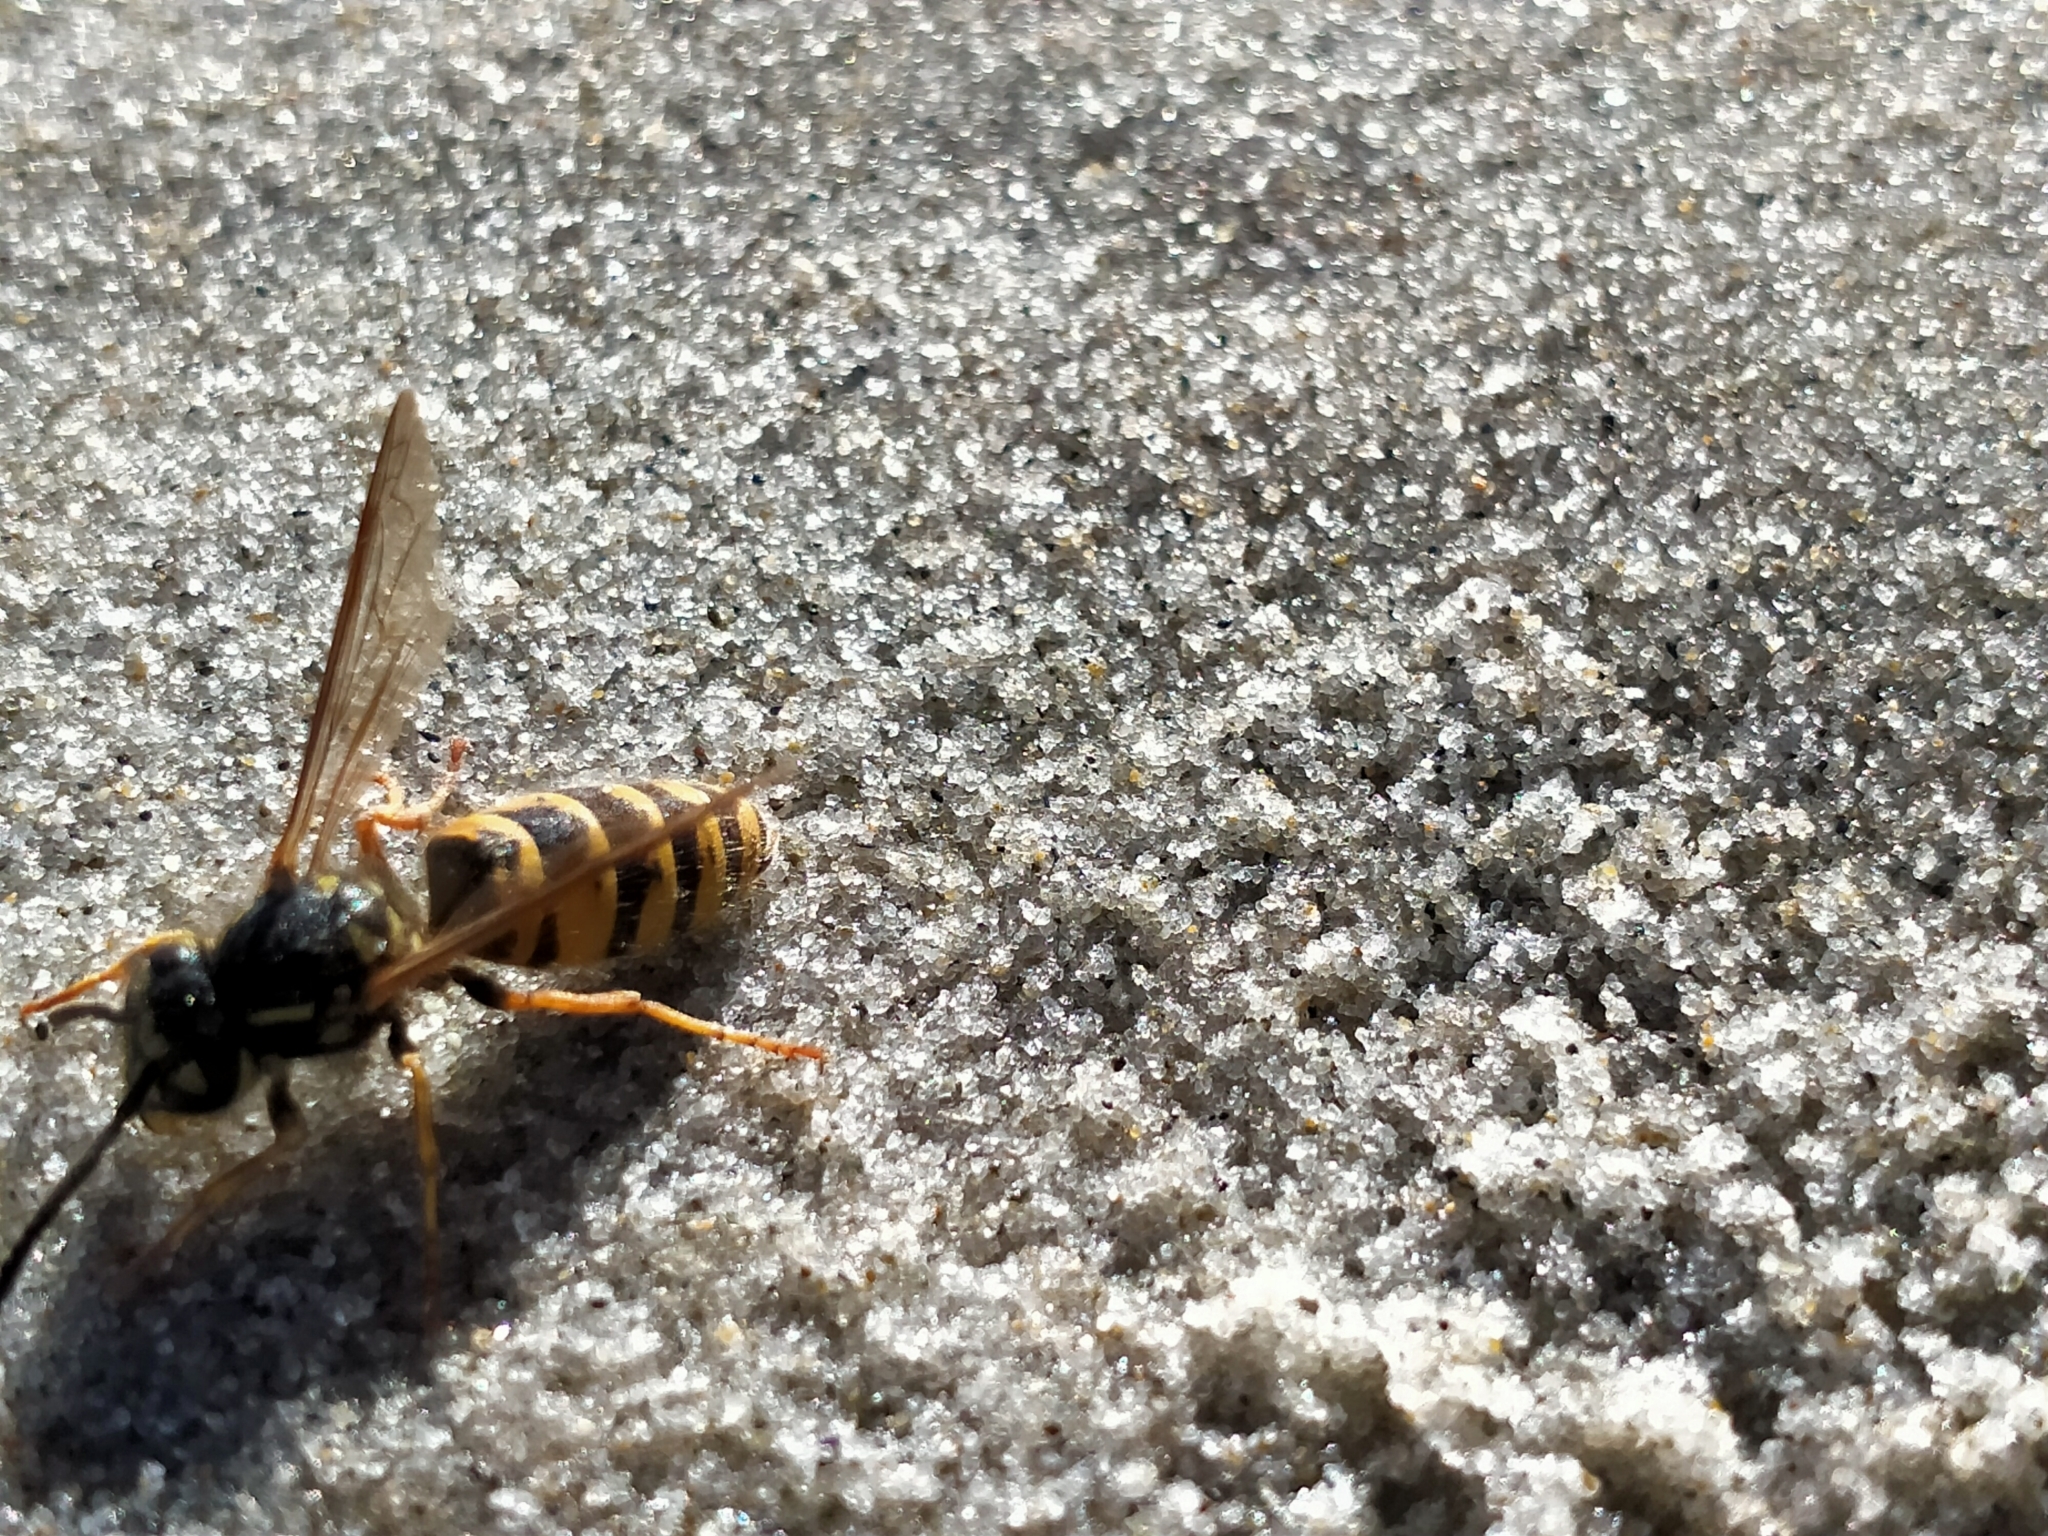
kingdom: Animalia
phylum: Arthropoda
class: Insecta
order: Hymenoptera
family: Vespidae
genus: Vespula
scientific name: Vespula vulgaris
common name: Common wasp
